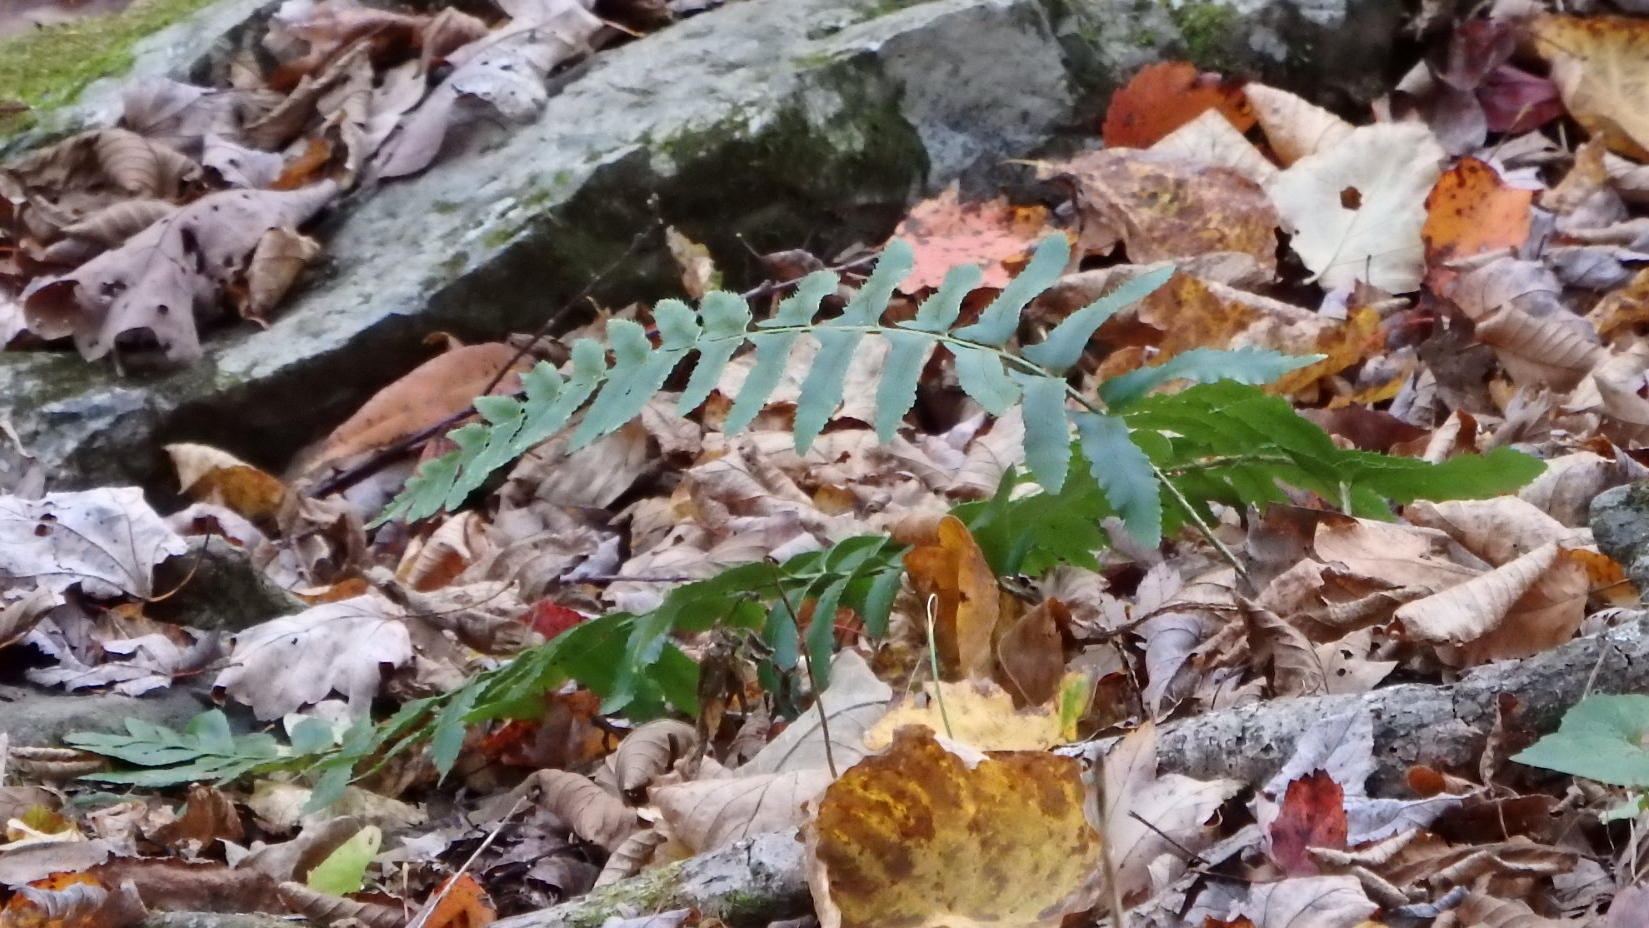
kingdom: Plantae
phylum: Tracheophyta
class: Polypodiopsida
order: Polypodiales
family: Dryopteridaceae
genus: Polystichum
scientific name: Polystichum acrostichoides
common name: Christmas fern
